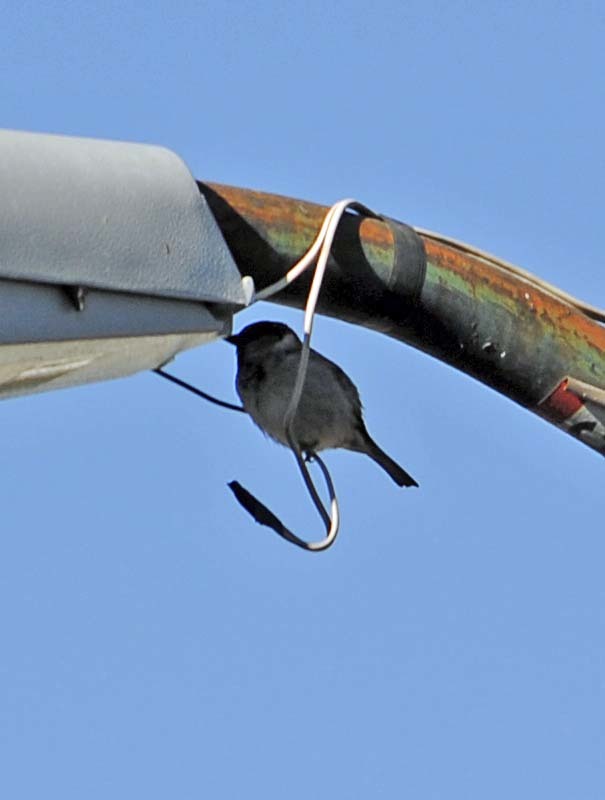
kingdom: Animalia
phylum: Chordata
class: Aves
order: Passeriformes
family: Passeridae
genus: Passer
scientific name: Passer domesticus
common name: House sparrow
